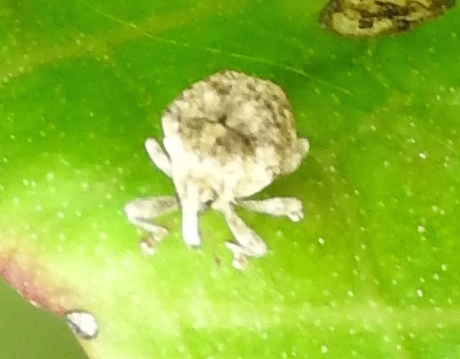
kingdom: Animalia
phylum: Arthropoda
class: Insecta
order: Coleoptera
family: Curculionidae
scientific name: Curculionidae
